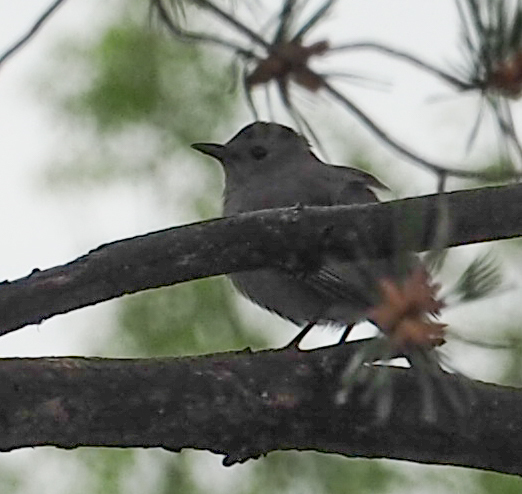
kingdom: Animalia
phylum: Chordata
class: Aves
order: Passeriformes
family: Mimidae
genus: Dumetella
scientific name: Dumetella carolinensis
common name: Gray catbird
